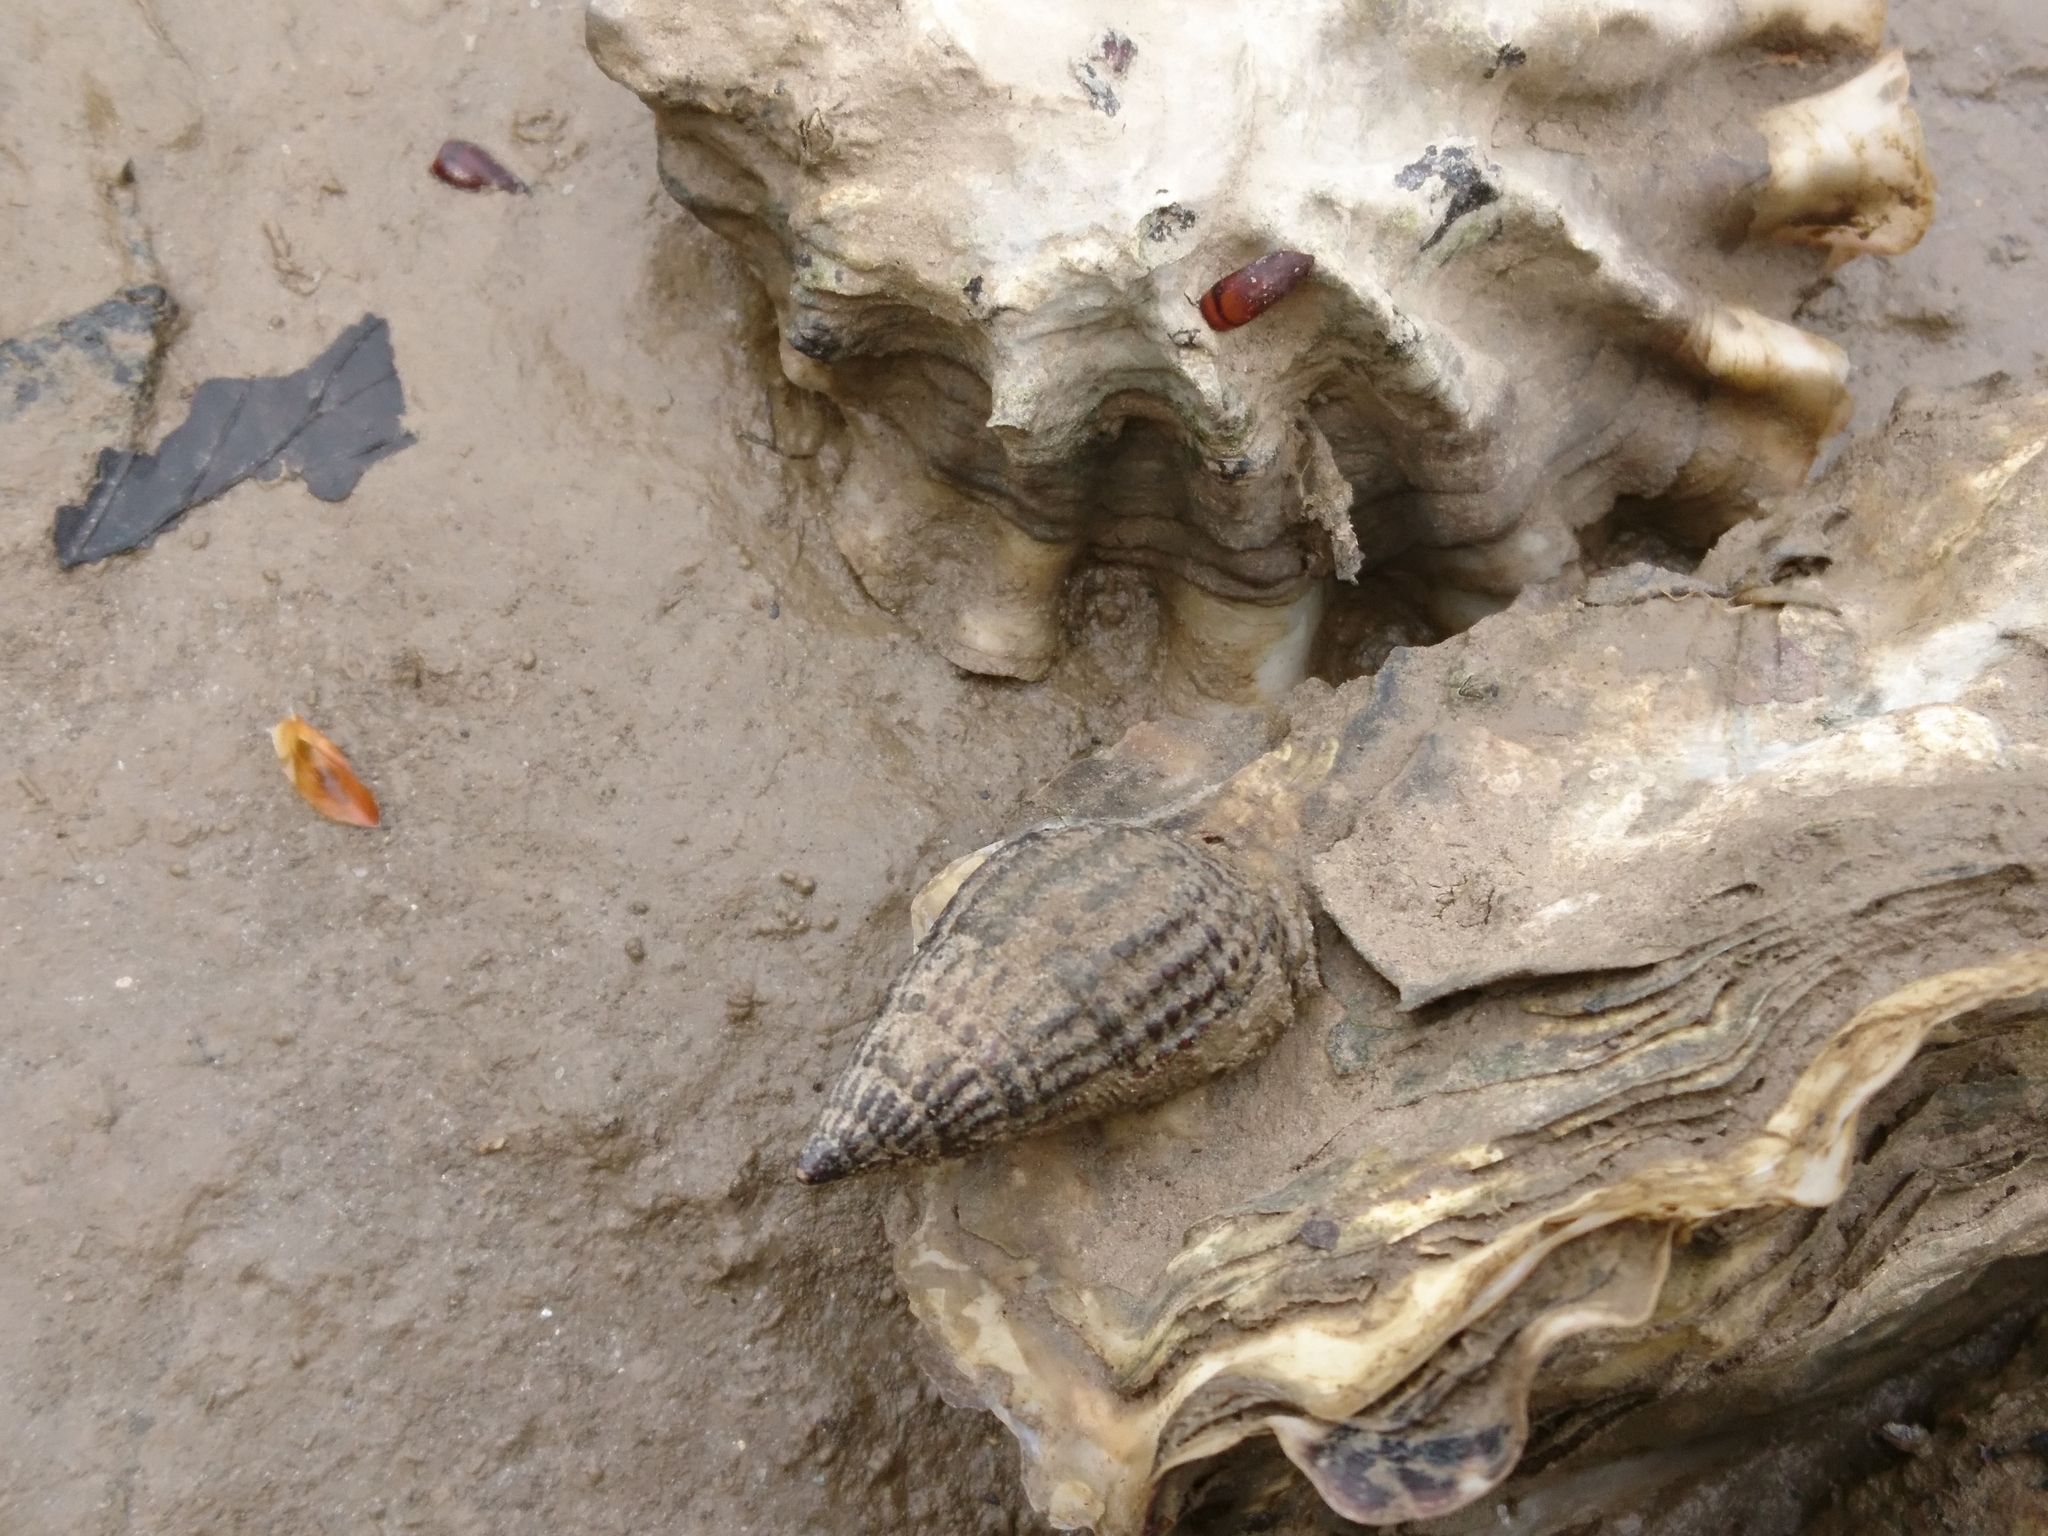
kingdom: Animalia
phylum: Mollusca
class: Gastropoda
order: Neogastropoda
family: Nassariidae
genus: Tritia
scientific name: Tritia reticulata
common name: Netted dog whelk
